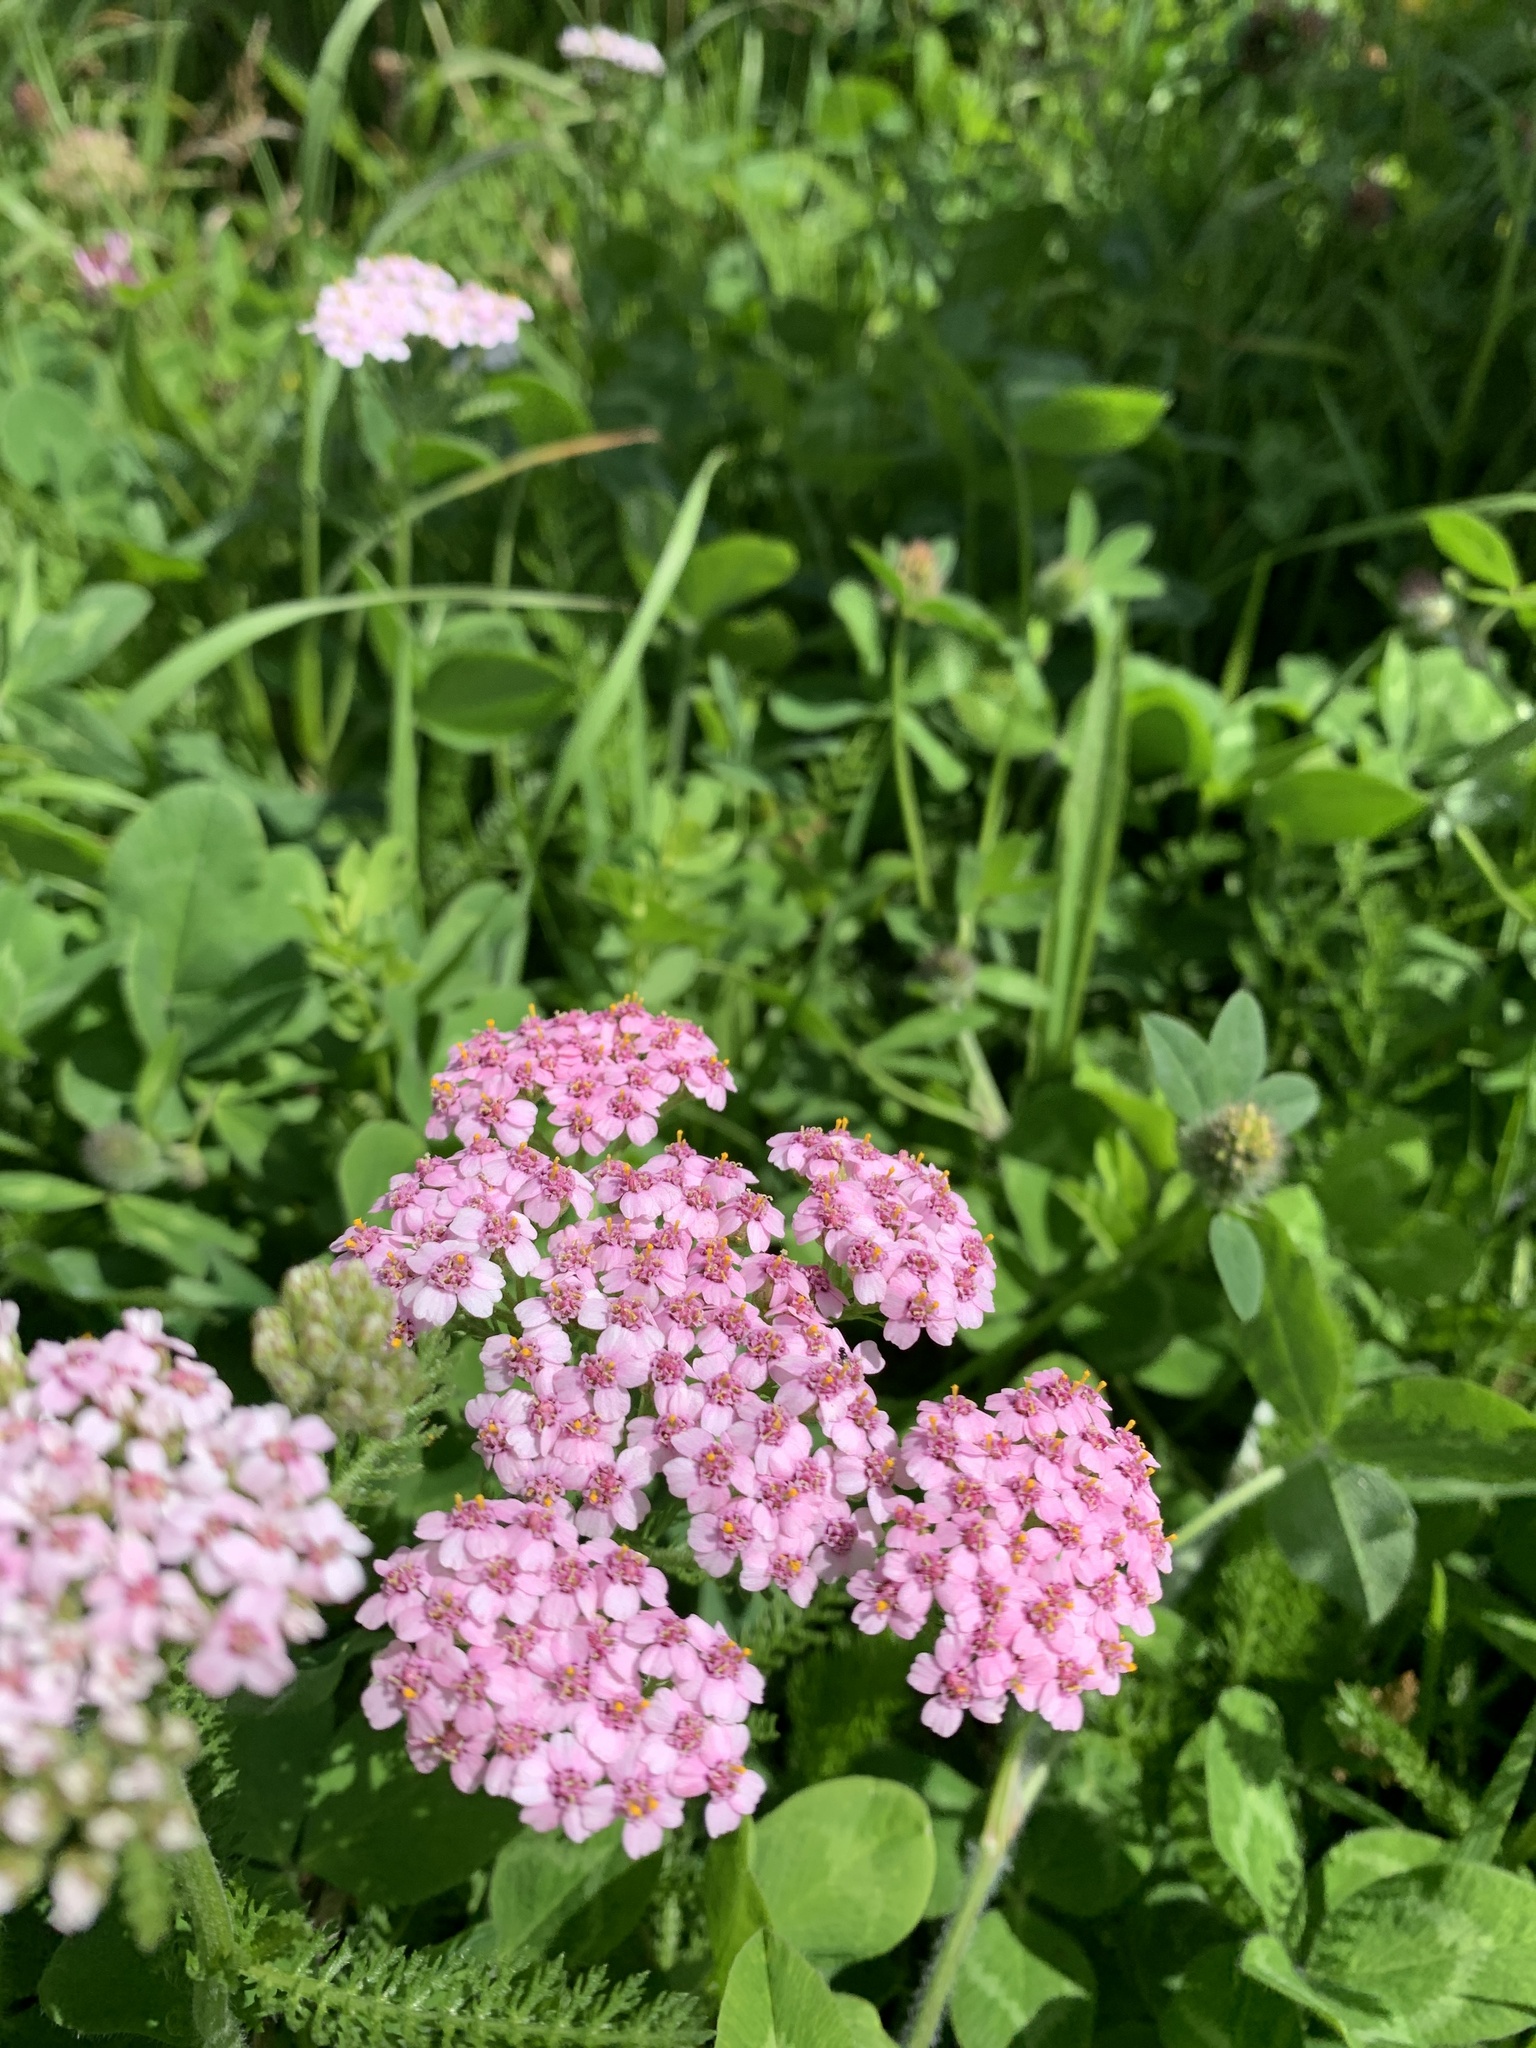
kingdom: Plantae
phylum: Tracheophyta
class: Magnoliopsida
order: Asterales
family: Asteraceae
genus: Achillea
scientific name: Achillea millefolium
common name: Yarrow
